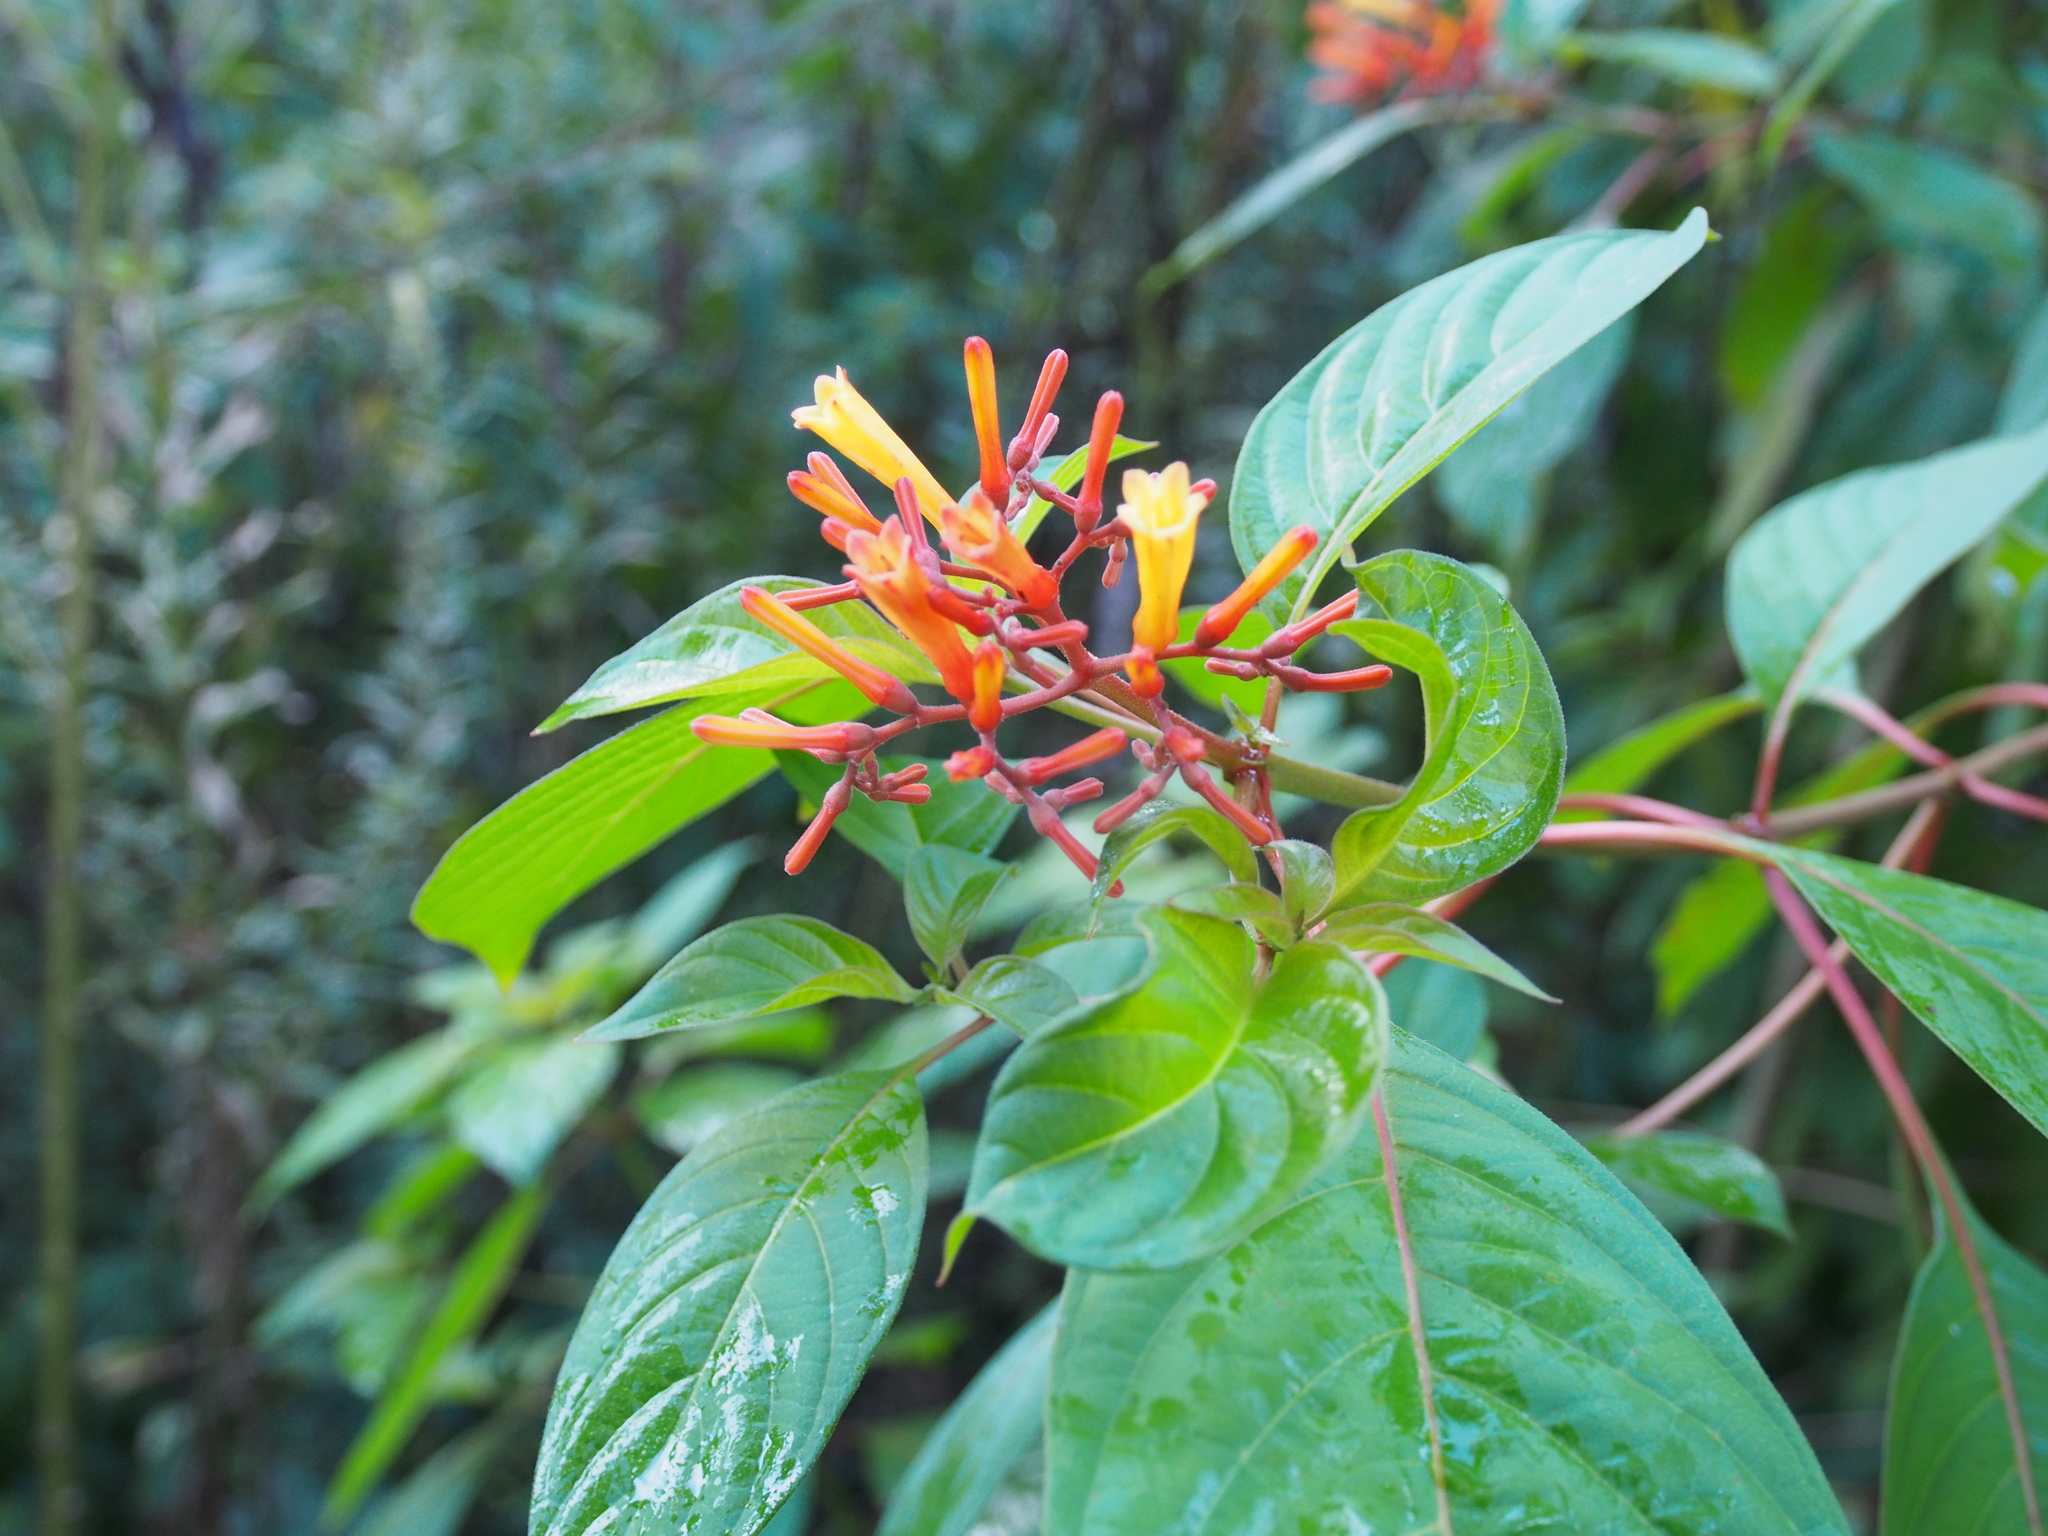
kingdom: Plantae
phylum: Tracheophyta
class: Magnoliopsida
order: Gentianales
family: Rubiaceae
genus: Hamelia
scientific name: Hamelia patens
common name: Redhead
